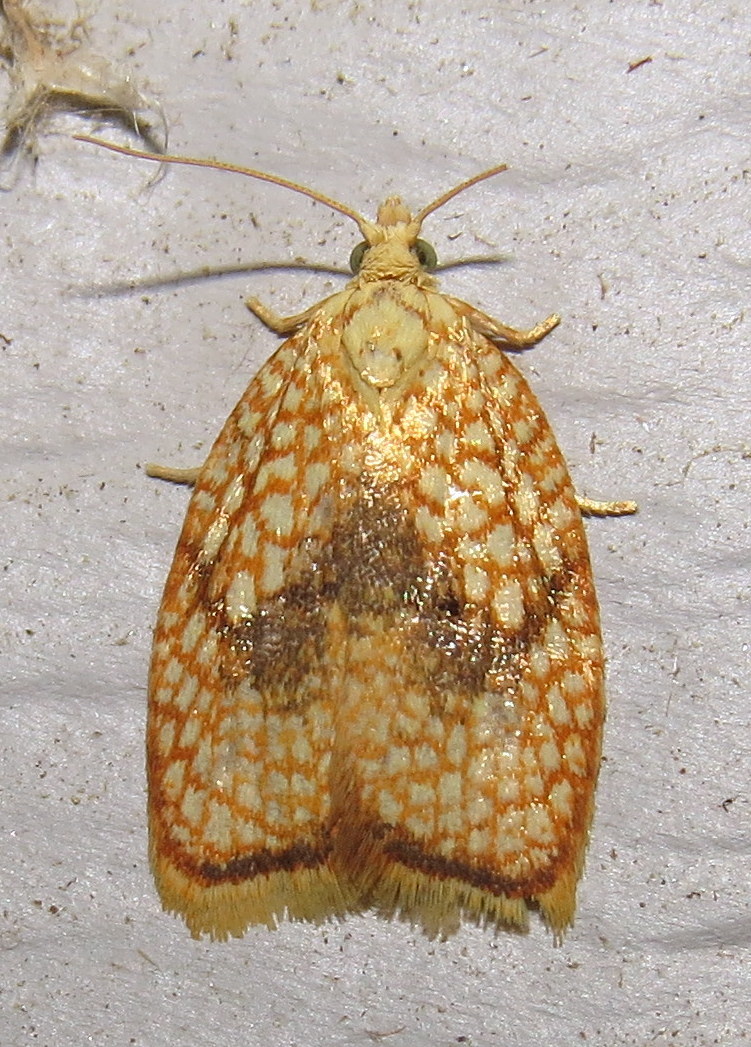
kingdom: Animalia
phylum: Arthropoda
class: Insecta
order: Lepidoptera
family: Tortricidae
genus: Acleris
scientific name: Acleris forsskaleana
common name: Maple button
